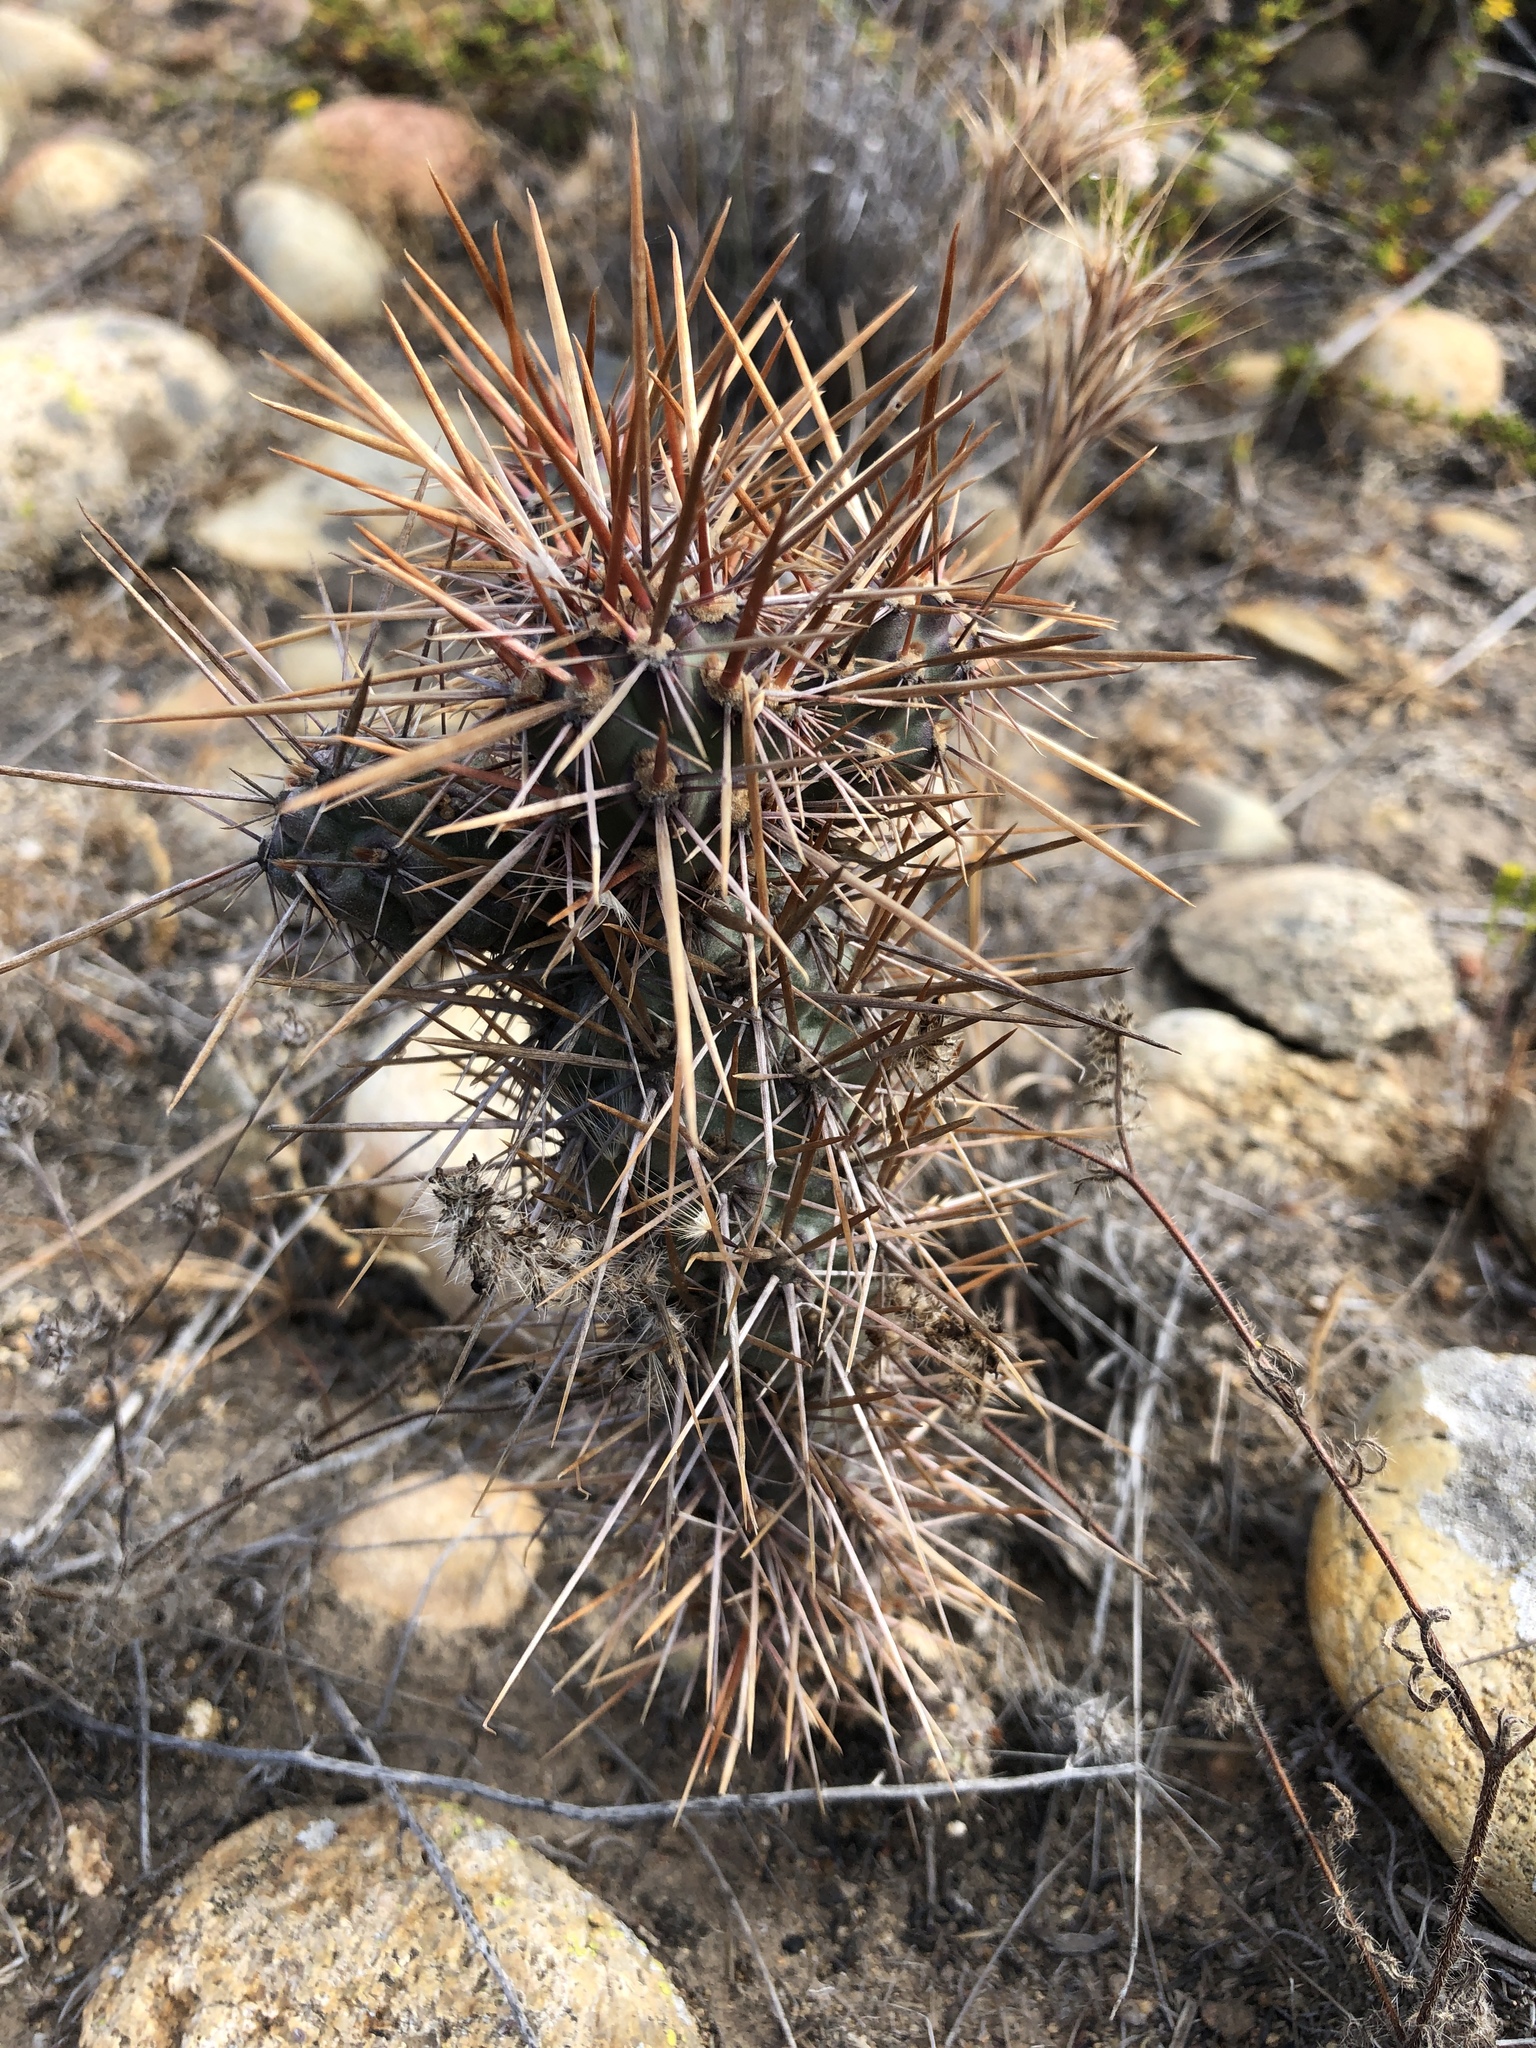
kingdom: Plantae
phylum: Tracheophyta
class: Magnoliopsida
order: Caryophyllales
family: Cactaceae
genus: Cylindropuntia
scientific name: Cylindropuntia prolifera
